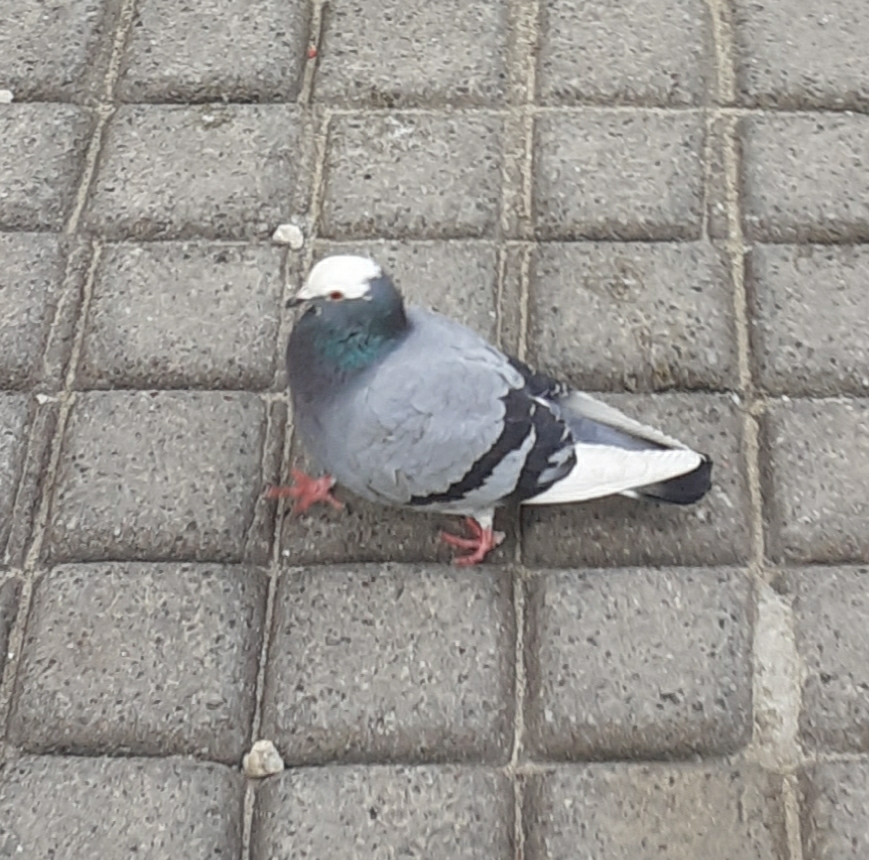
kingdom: Animalia
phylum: Chordata
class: Aves
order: Columbiformes
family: Columbidae
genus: Columba
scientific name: Columba livia
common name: Rock pigeon
